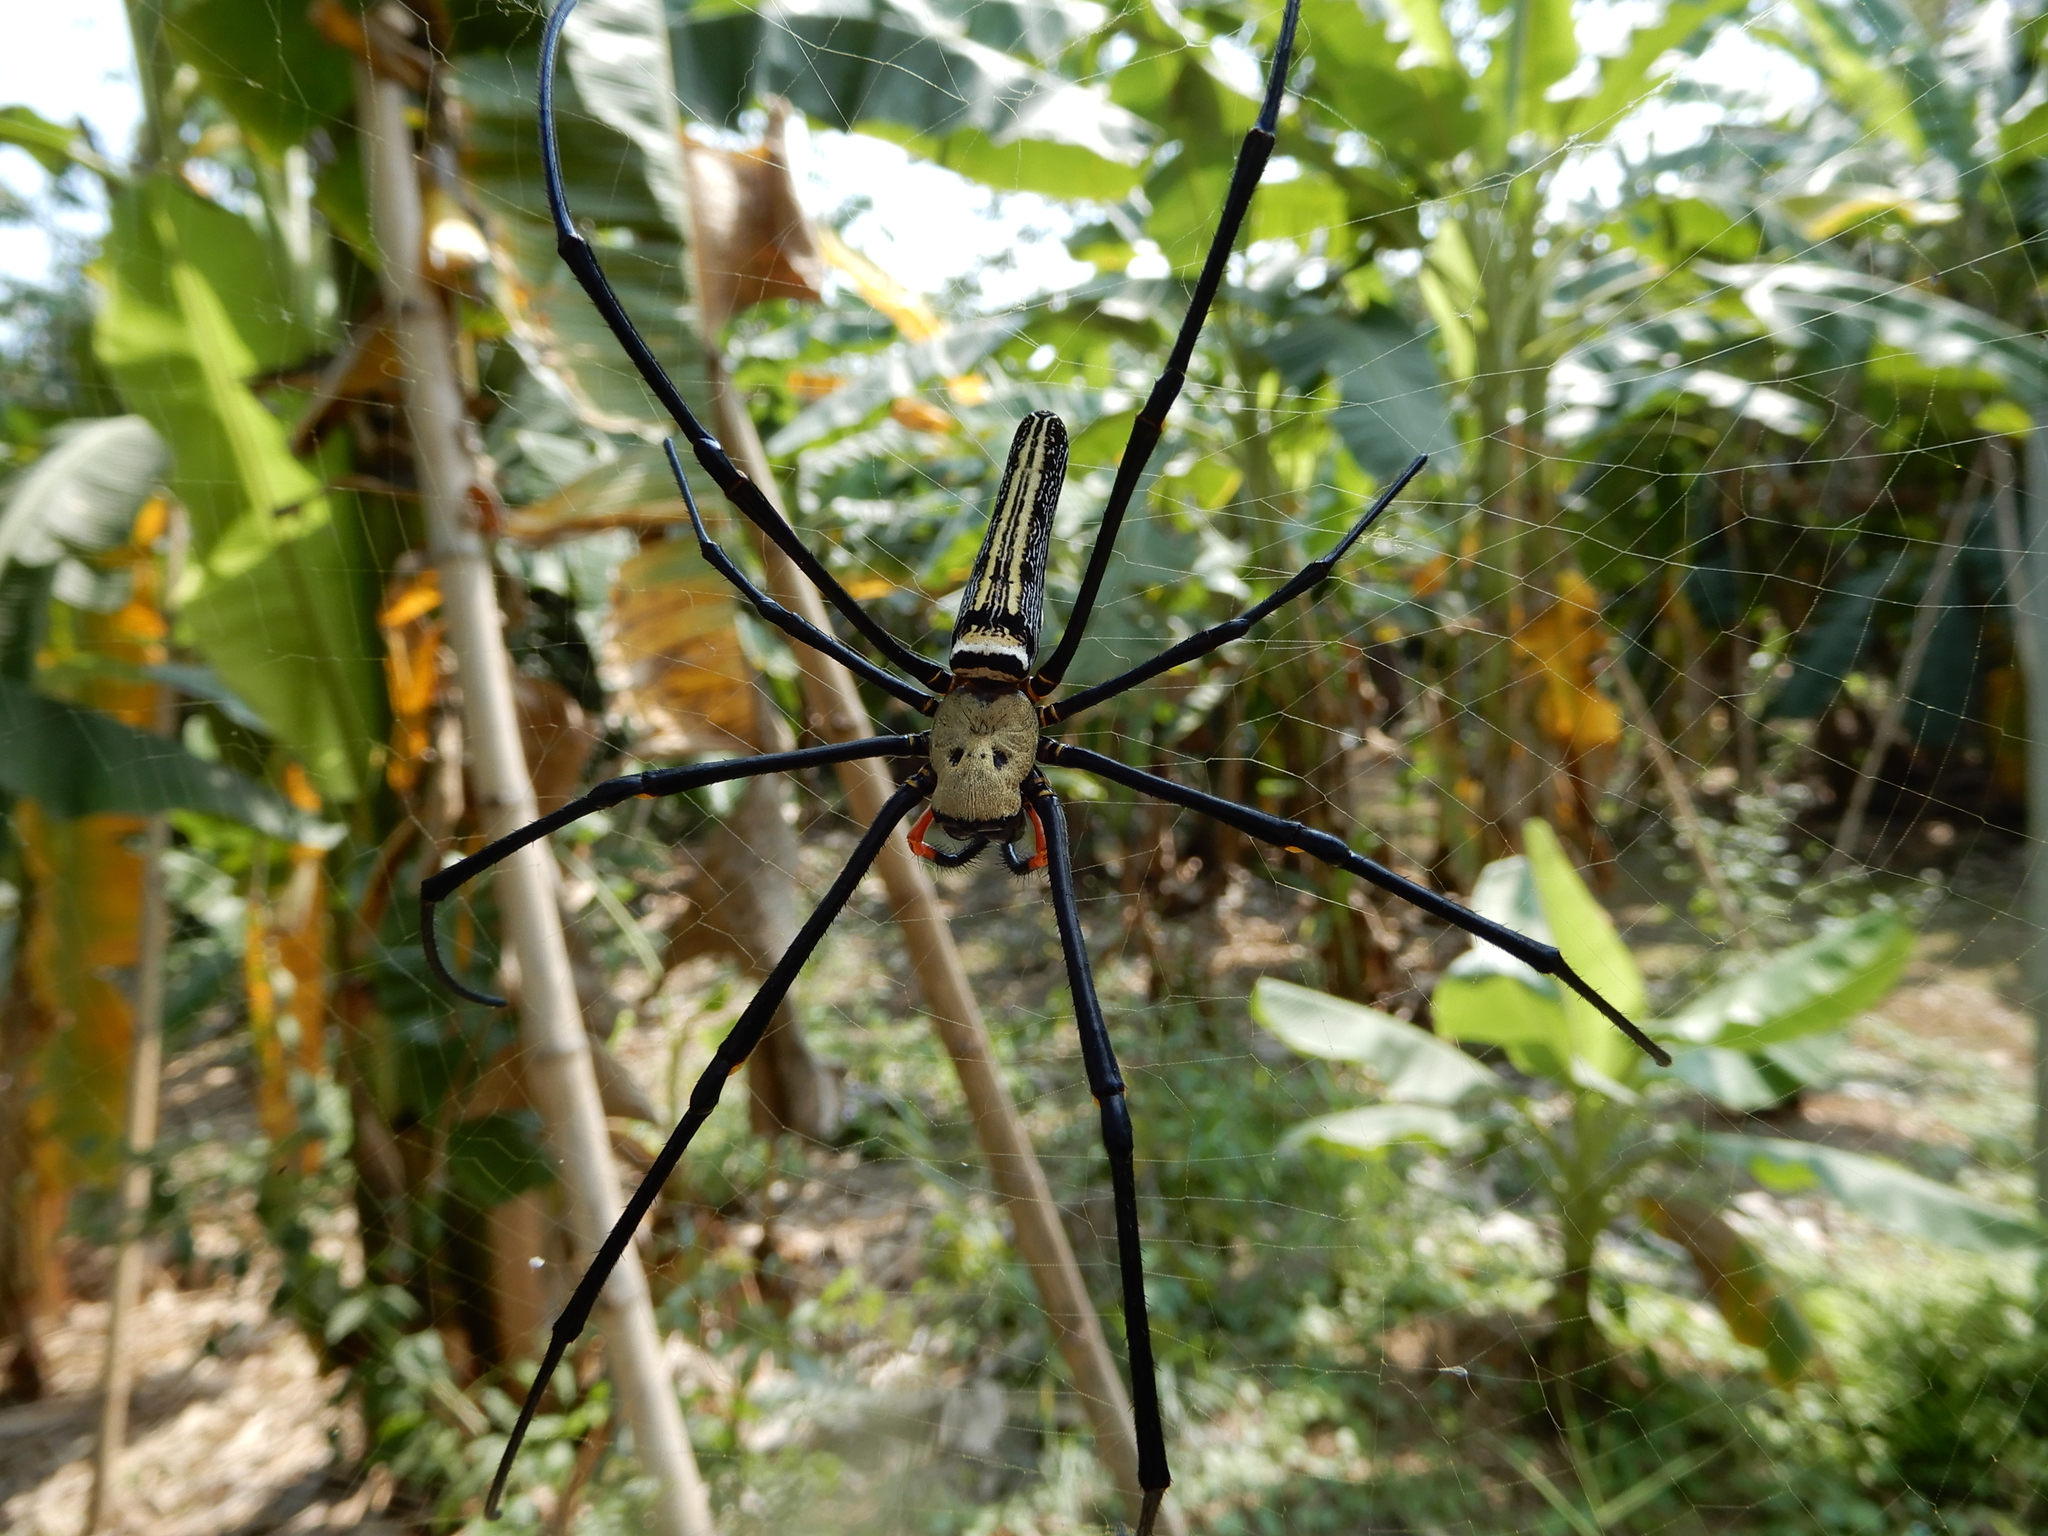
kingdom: Animalia
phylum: Arthropoda
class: Arachnida
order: Araneae
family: Araneidae
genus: Nephila
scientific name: Nephila pilipes
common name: Giant golden orb weaver
